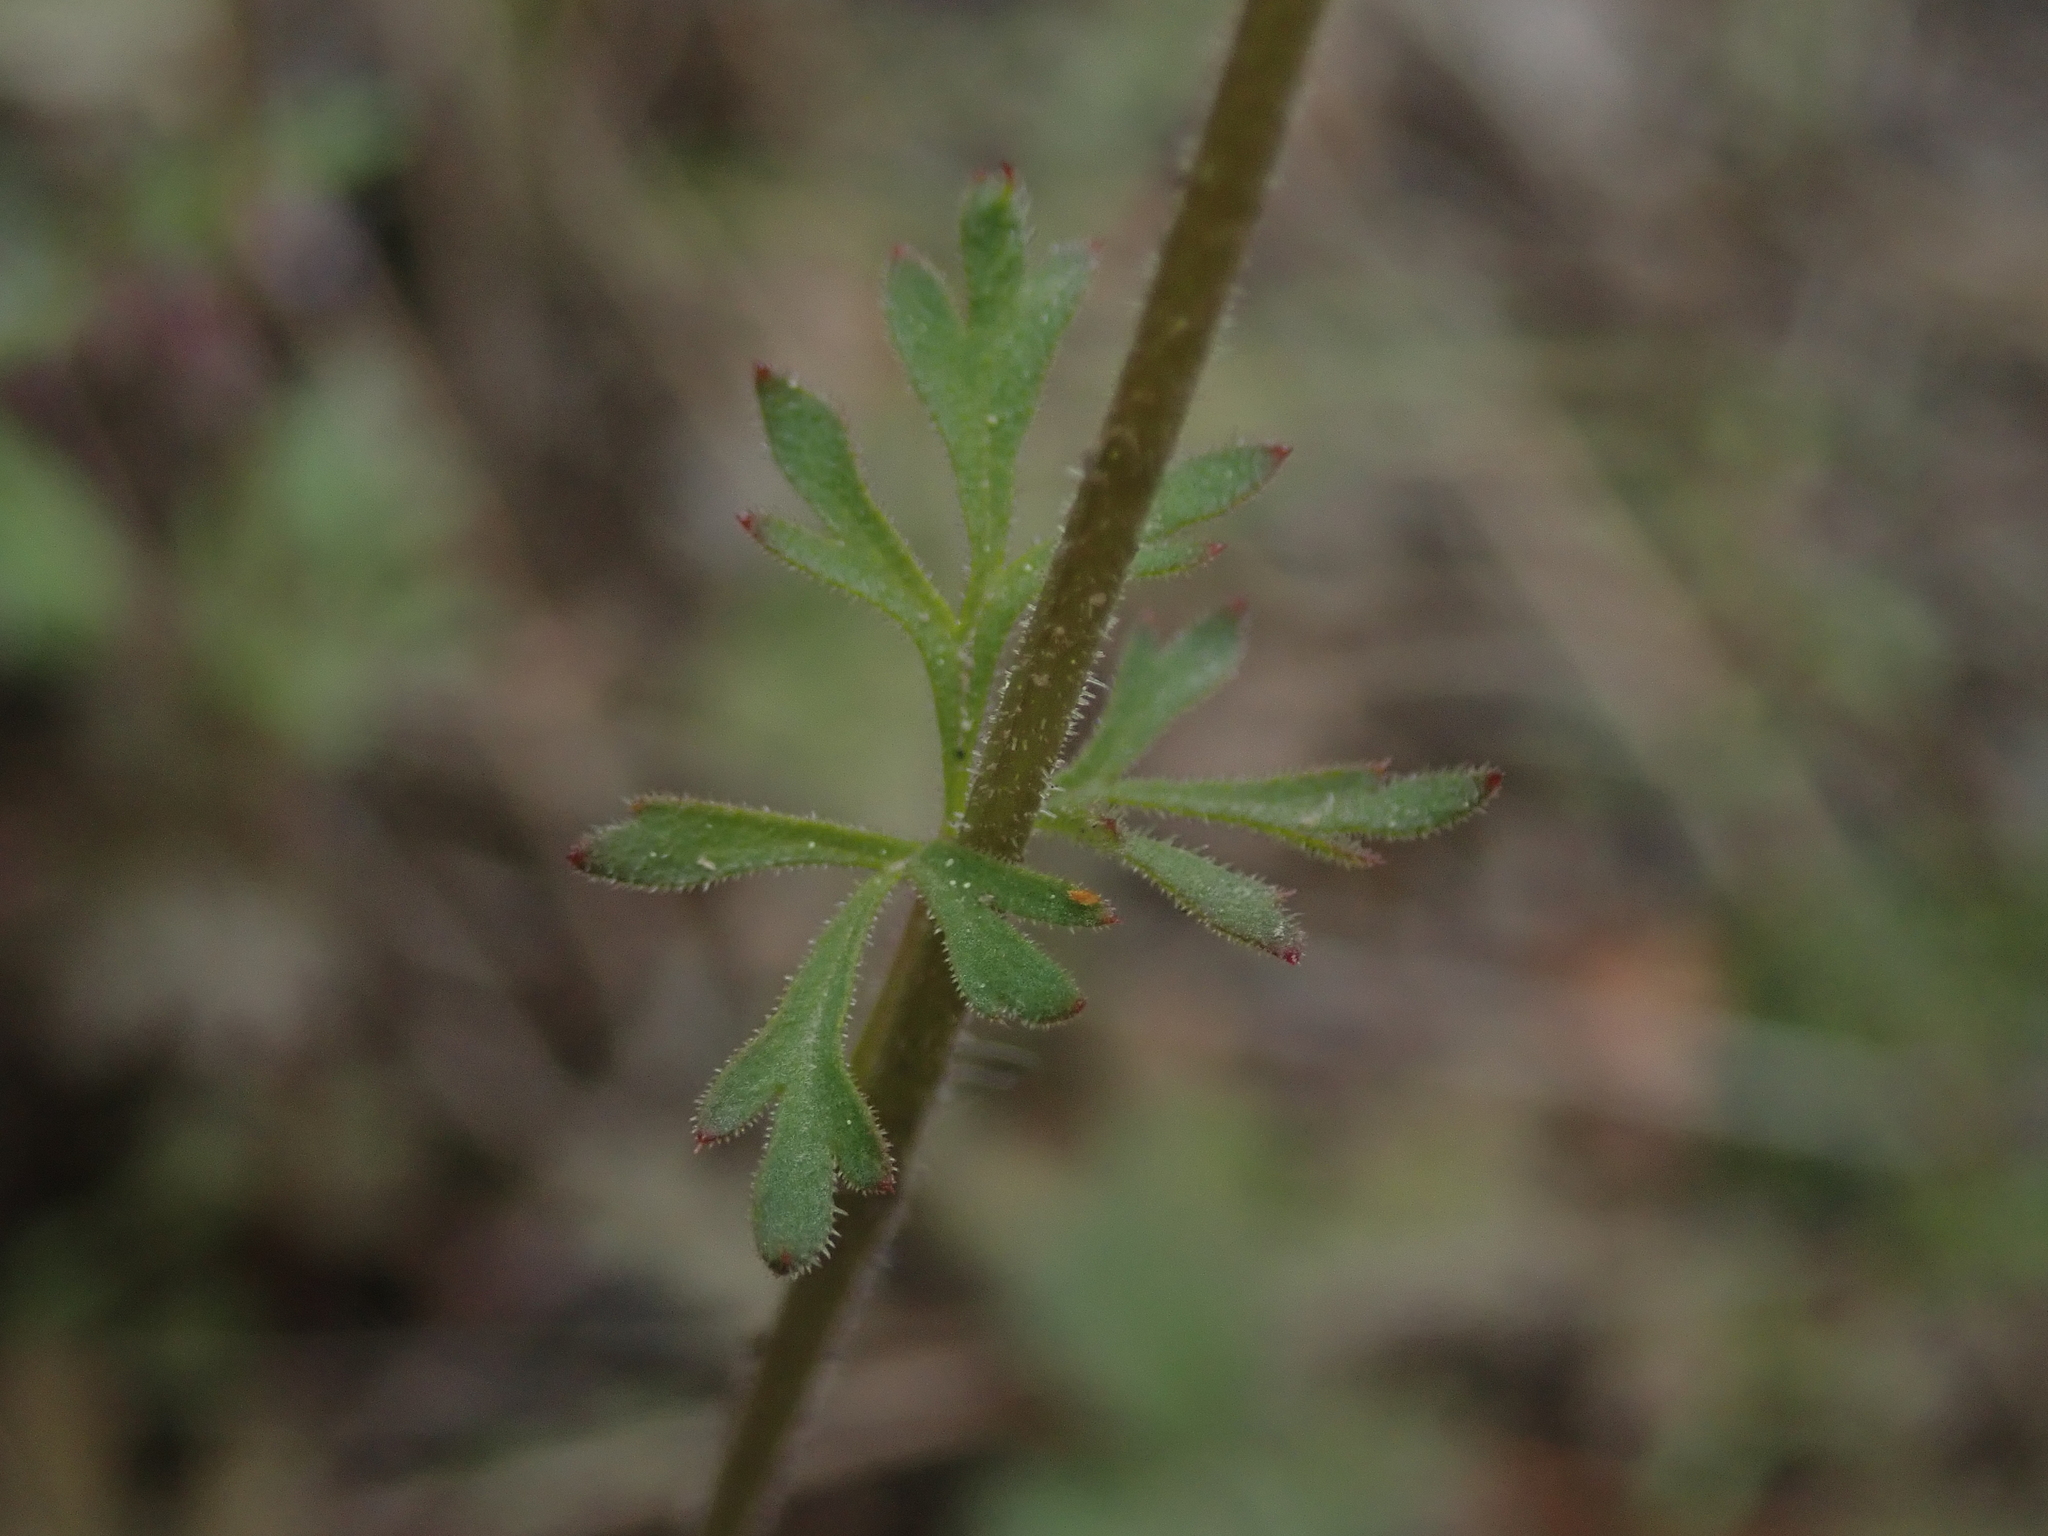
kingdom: Plantae
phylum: Tracheophyta
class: Magnoliopsida
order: Saxifragales
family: Saxifragaceae
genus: Lithophragma
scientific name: Lithophragma parviflorum
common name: Small-flowered fringe-cup
